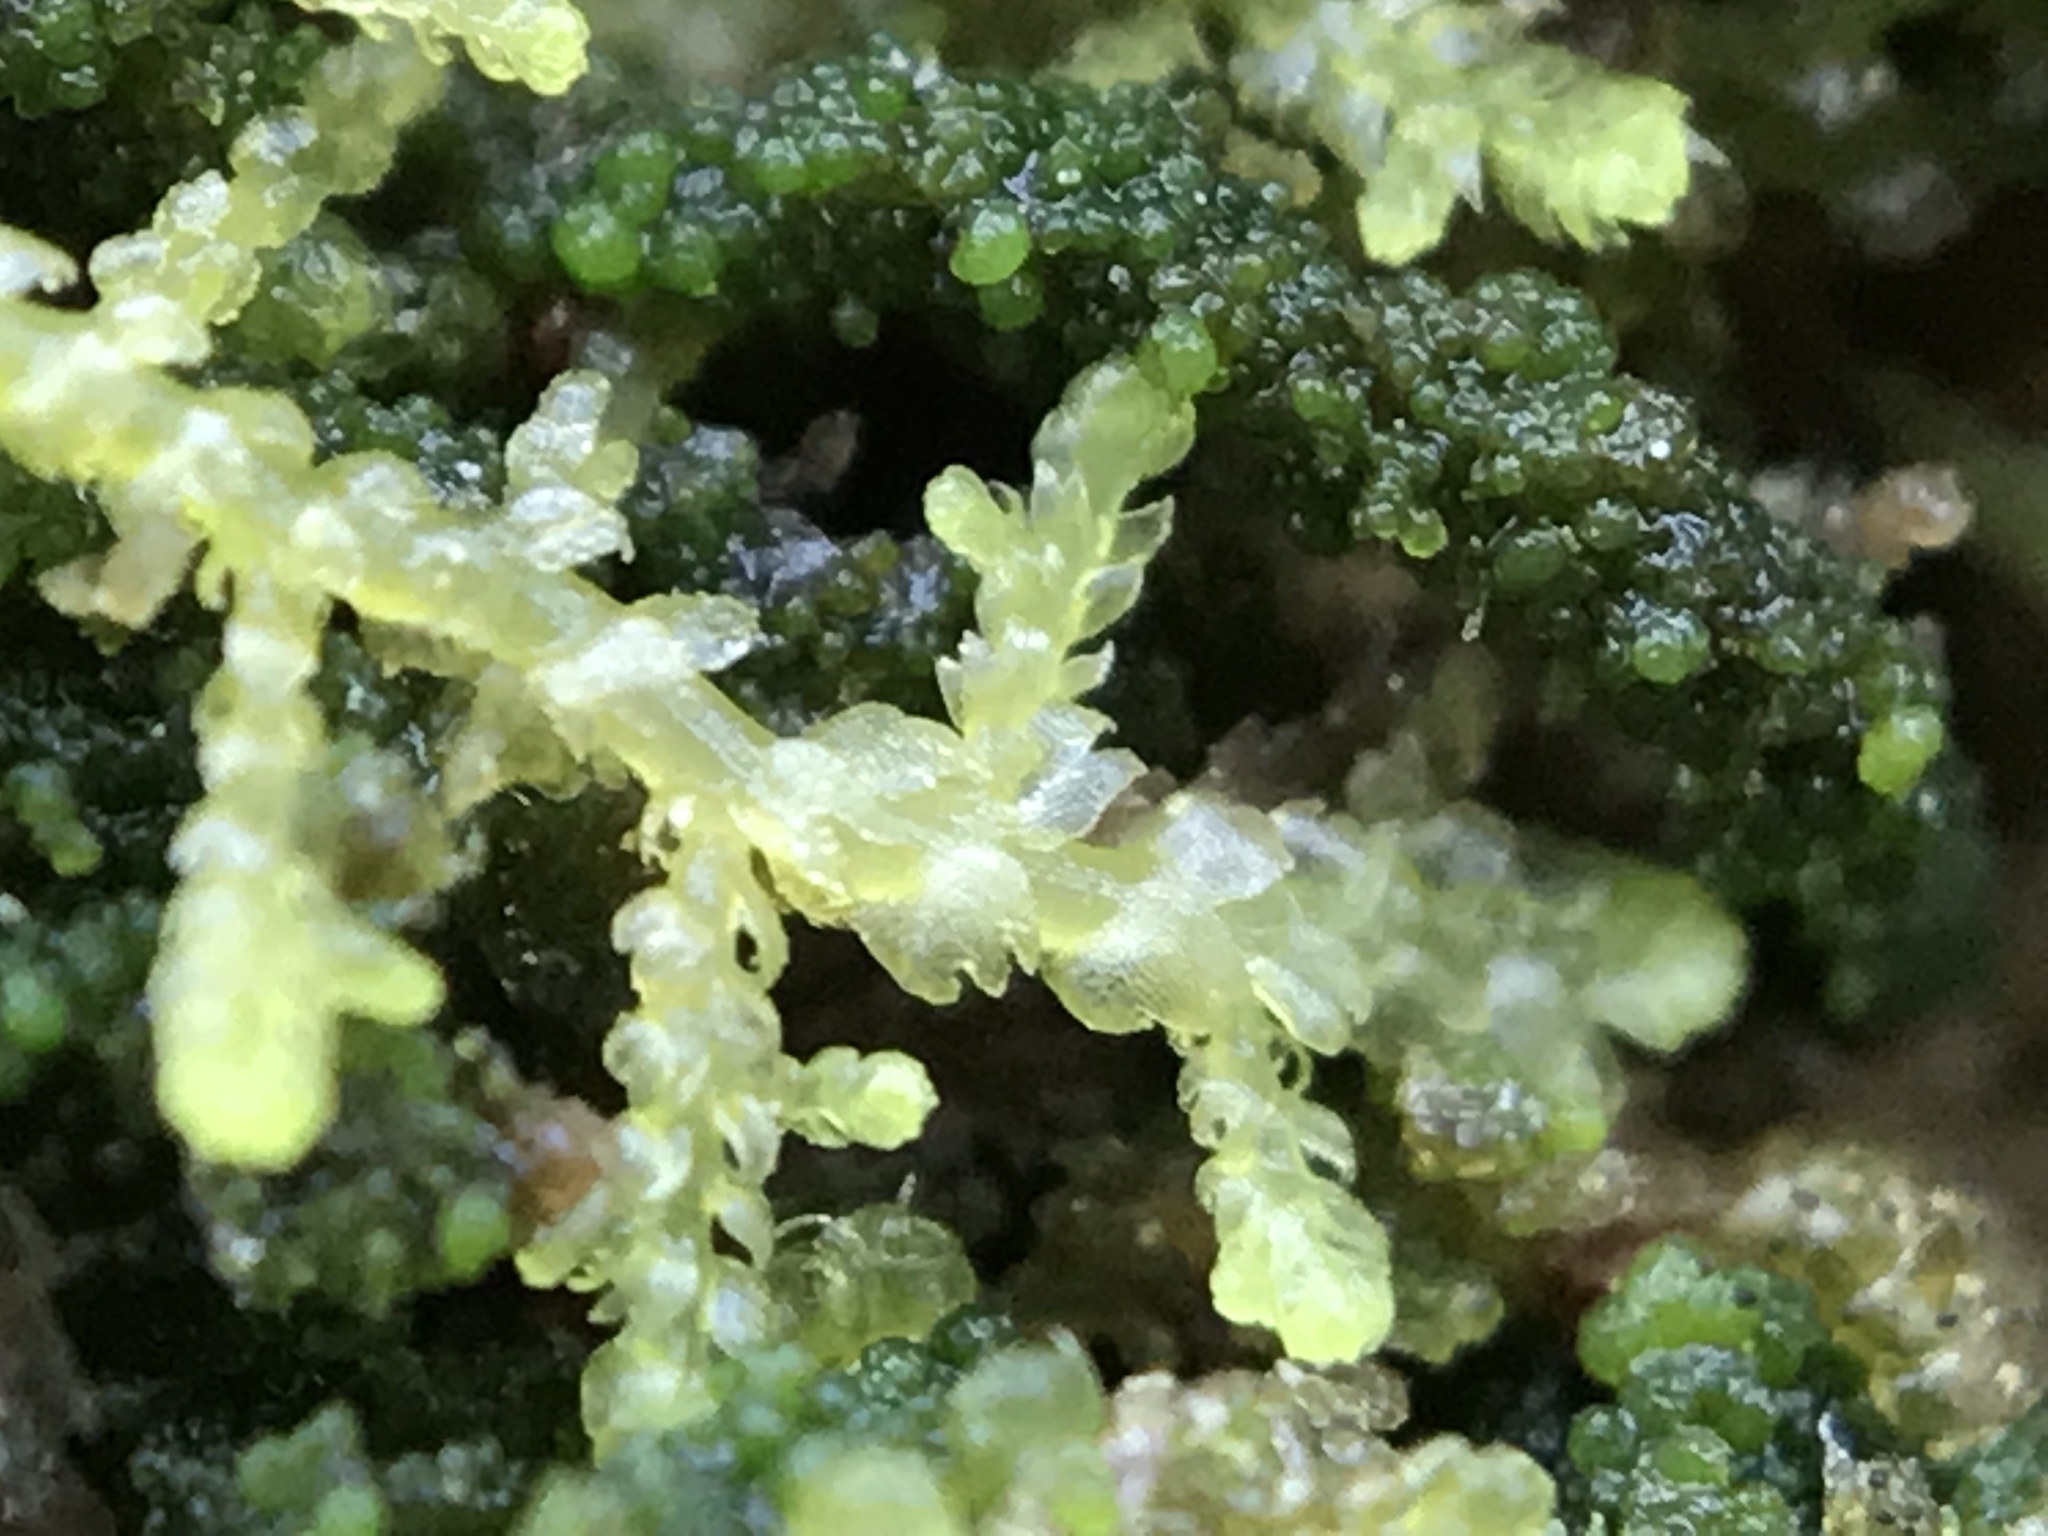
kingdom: Plantae
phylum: Marchantiophyta
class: Jungermanniopsida
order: Jungermanniales
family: Lepidoziaceae
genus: Lepidozia
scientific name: Lepidozia reptans
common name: Creeping fingerwort
